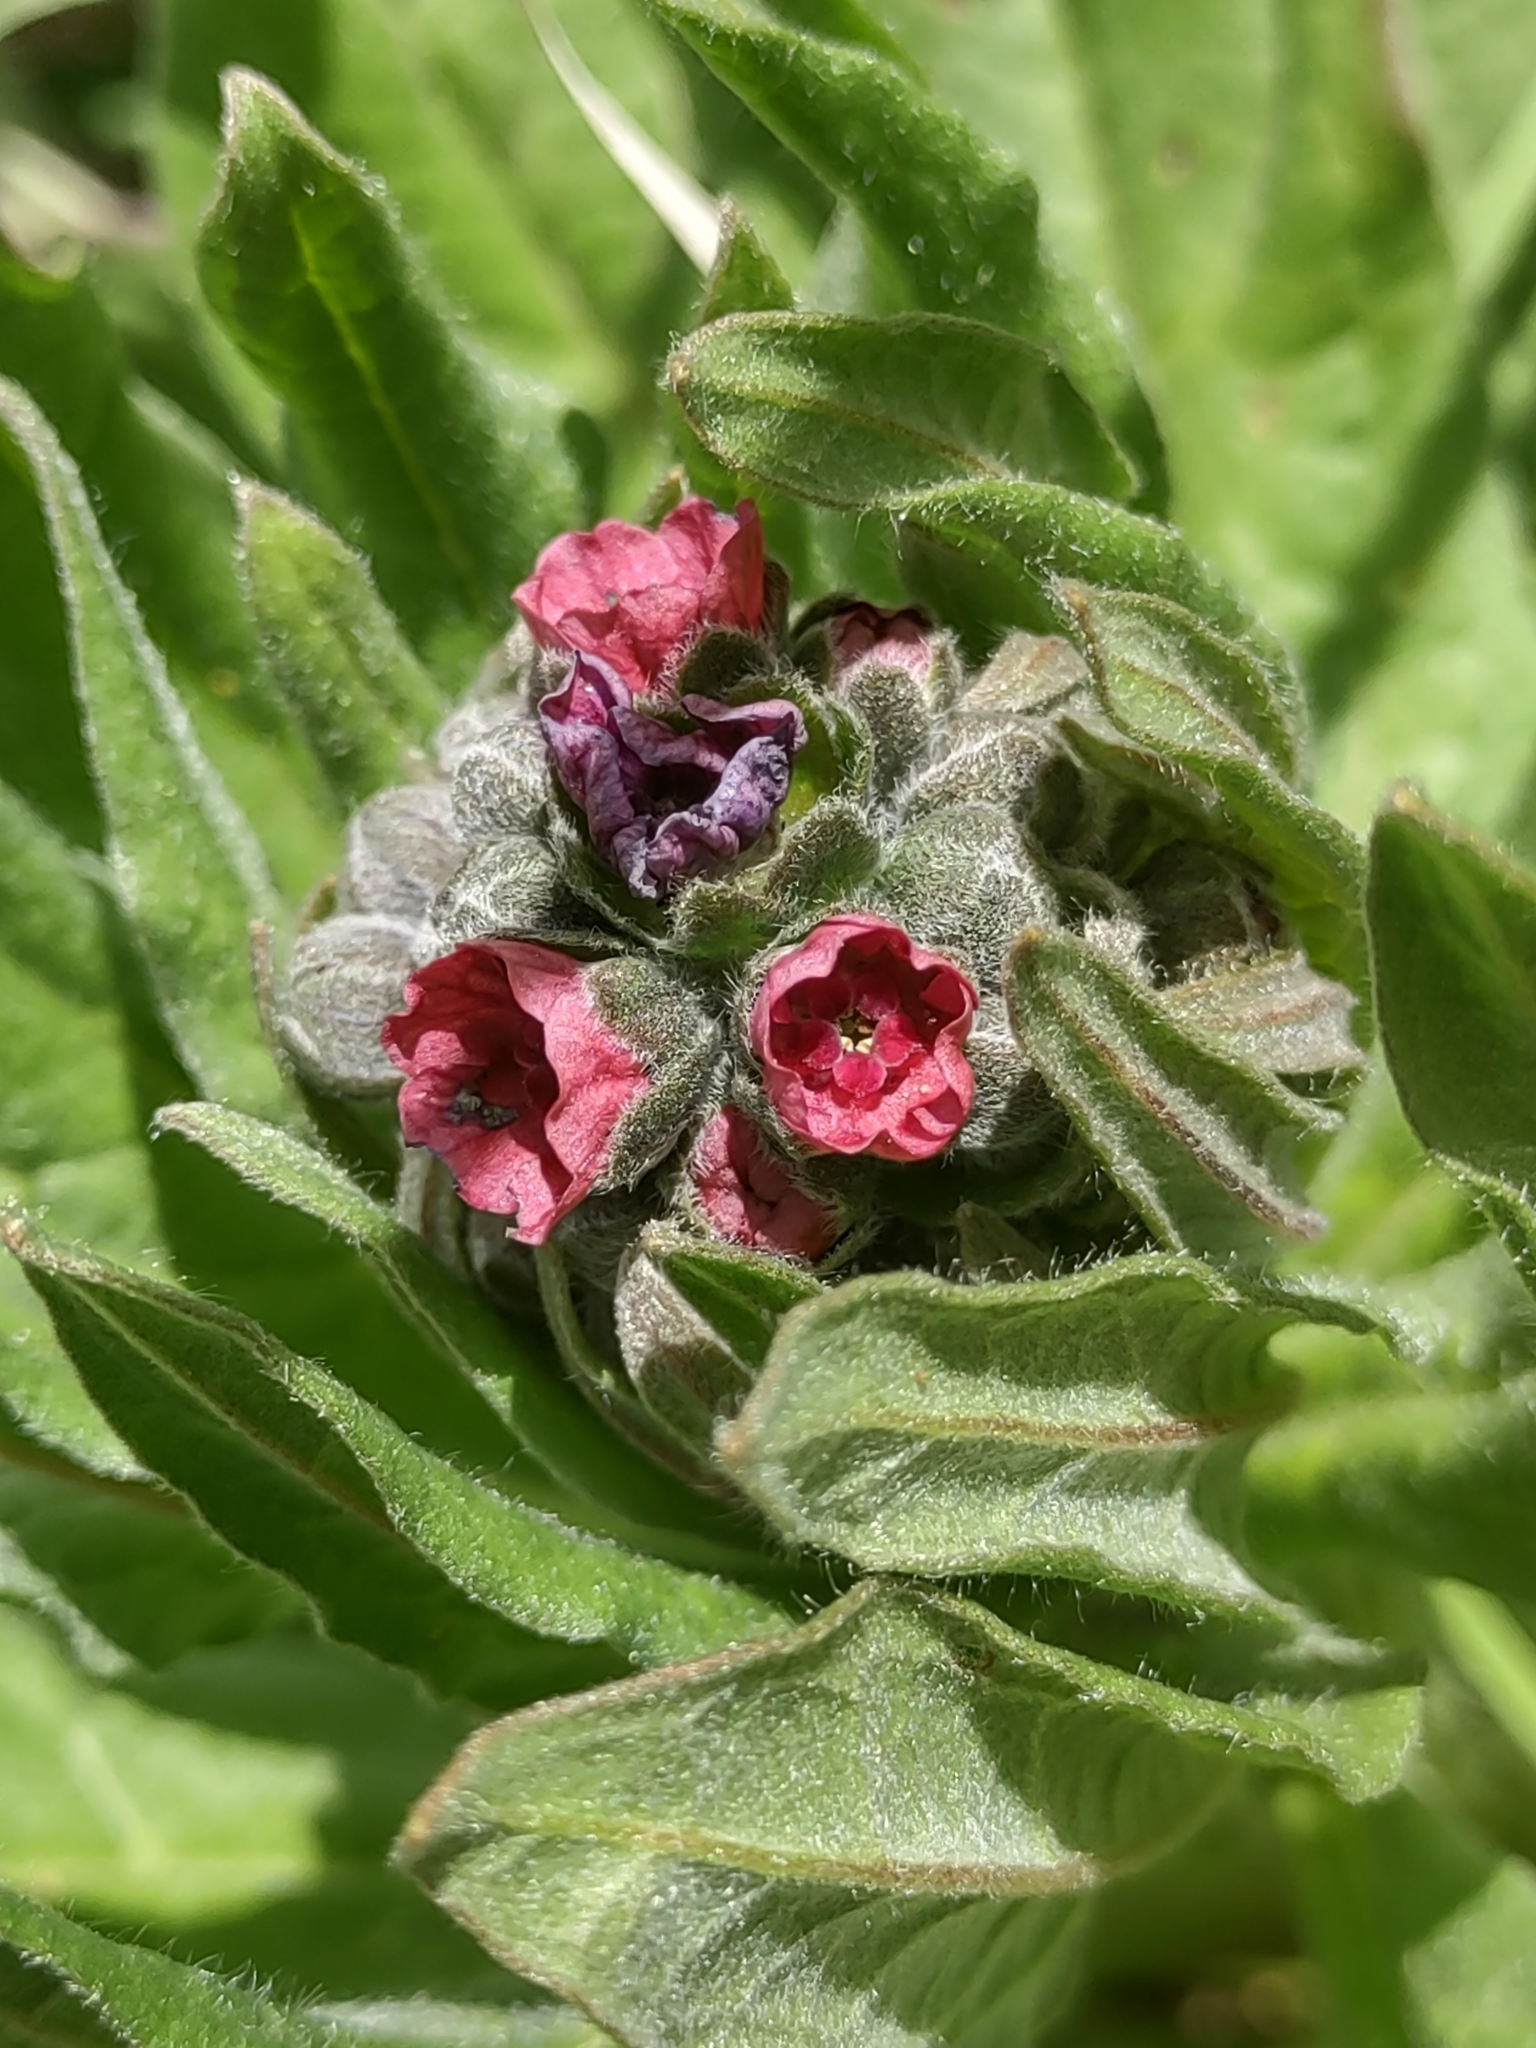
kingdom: Plantae
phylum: Tracheophyta
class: Magnoliopsida
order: Boraginales
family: Boraginaceae
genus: Cynoglossum
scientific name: Cynoglossum officinale
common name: Hound's-tongue
